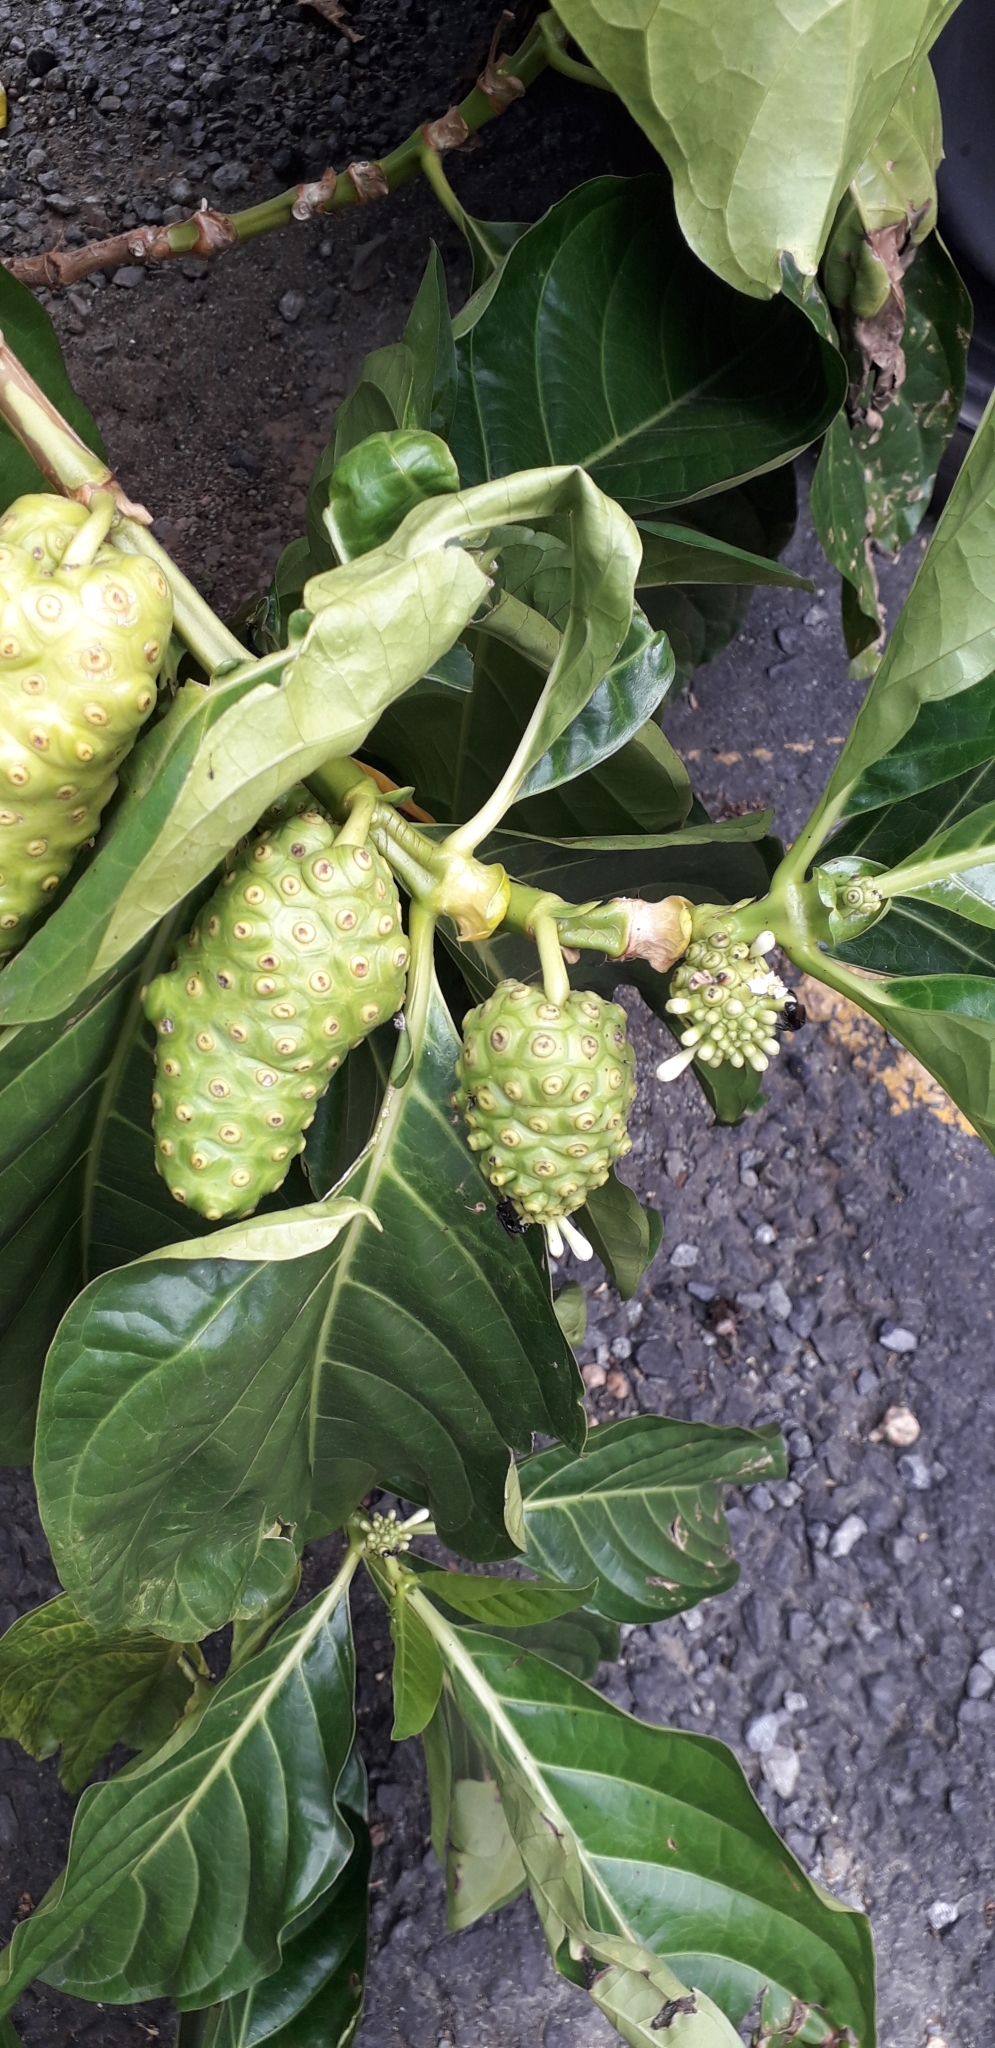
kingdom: Plantae
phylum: Tracheophyta
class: Magnoliopsida
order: Gentianales
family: Rubiaceae
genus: Morinda
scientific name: Morinda citrifolia
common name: Indian-mulberry
